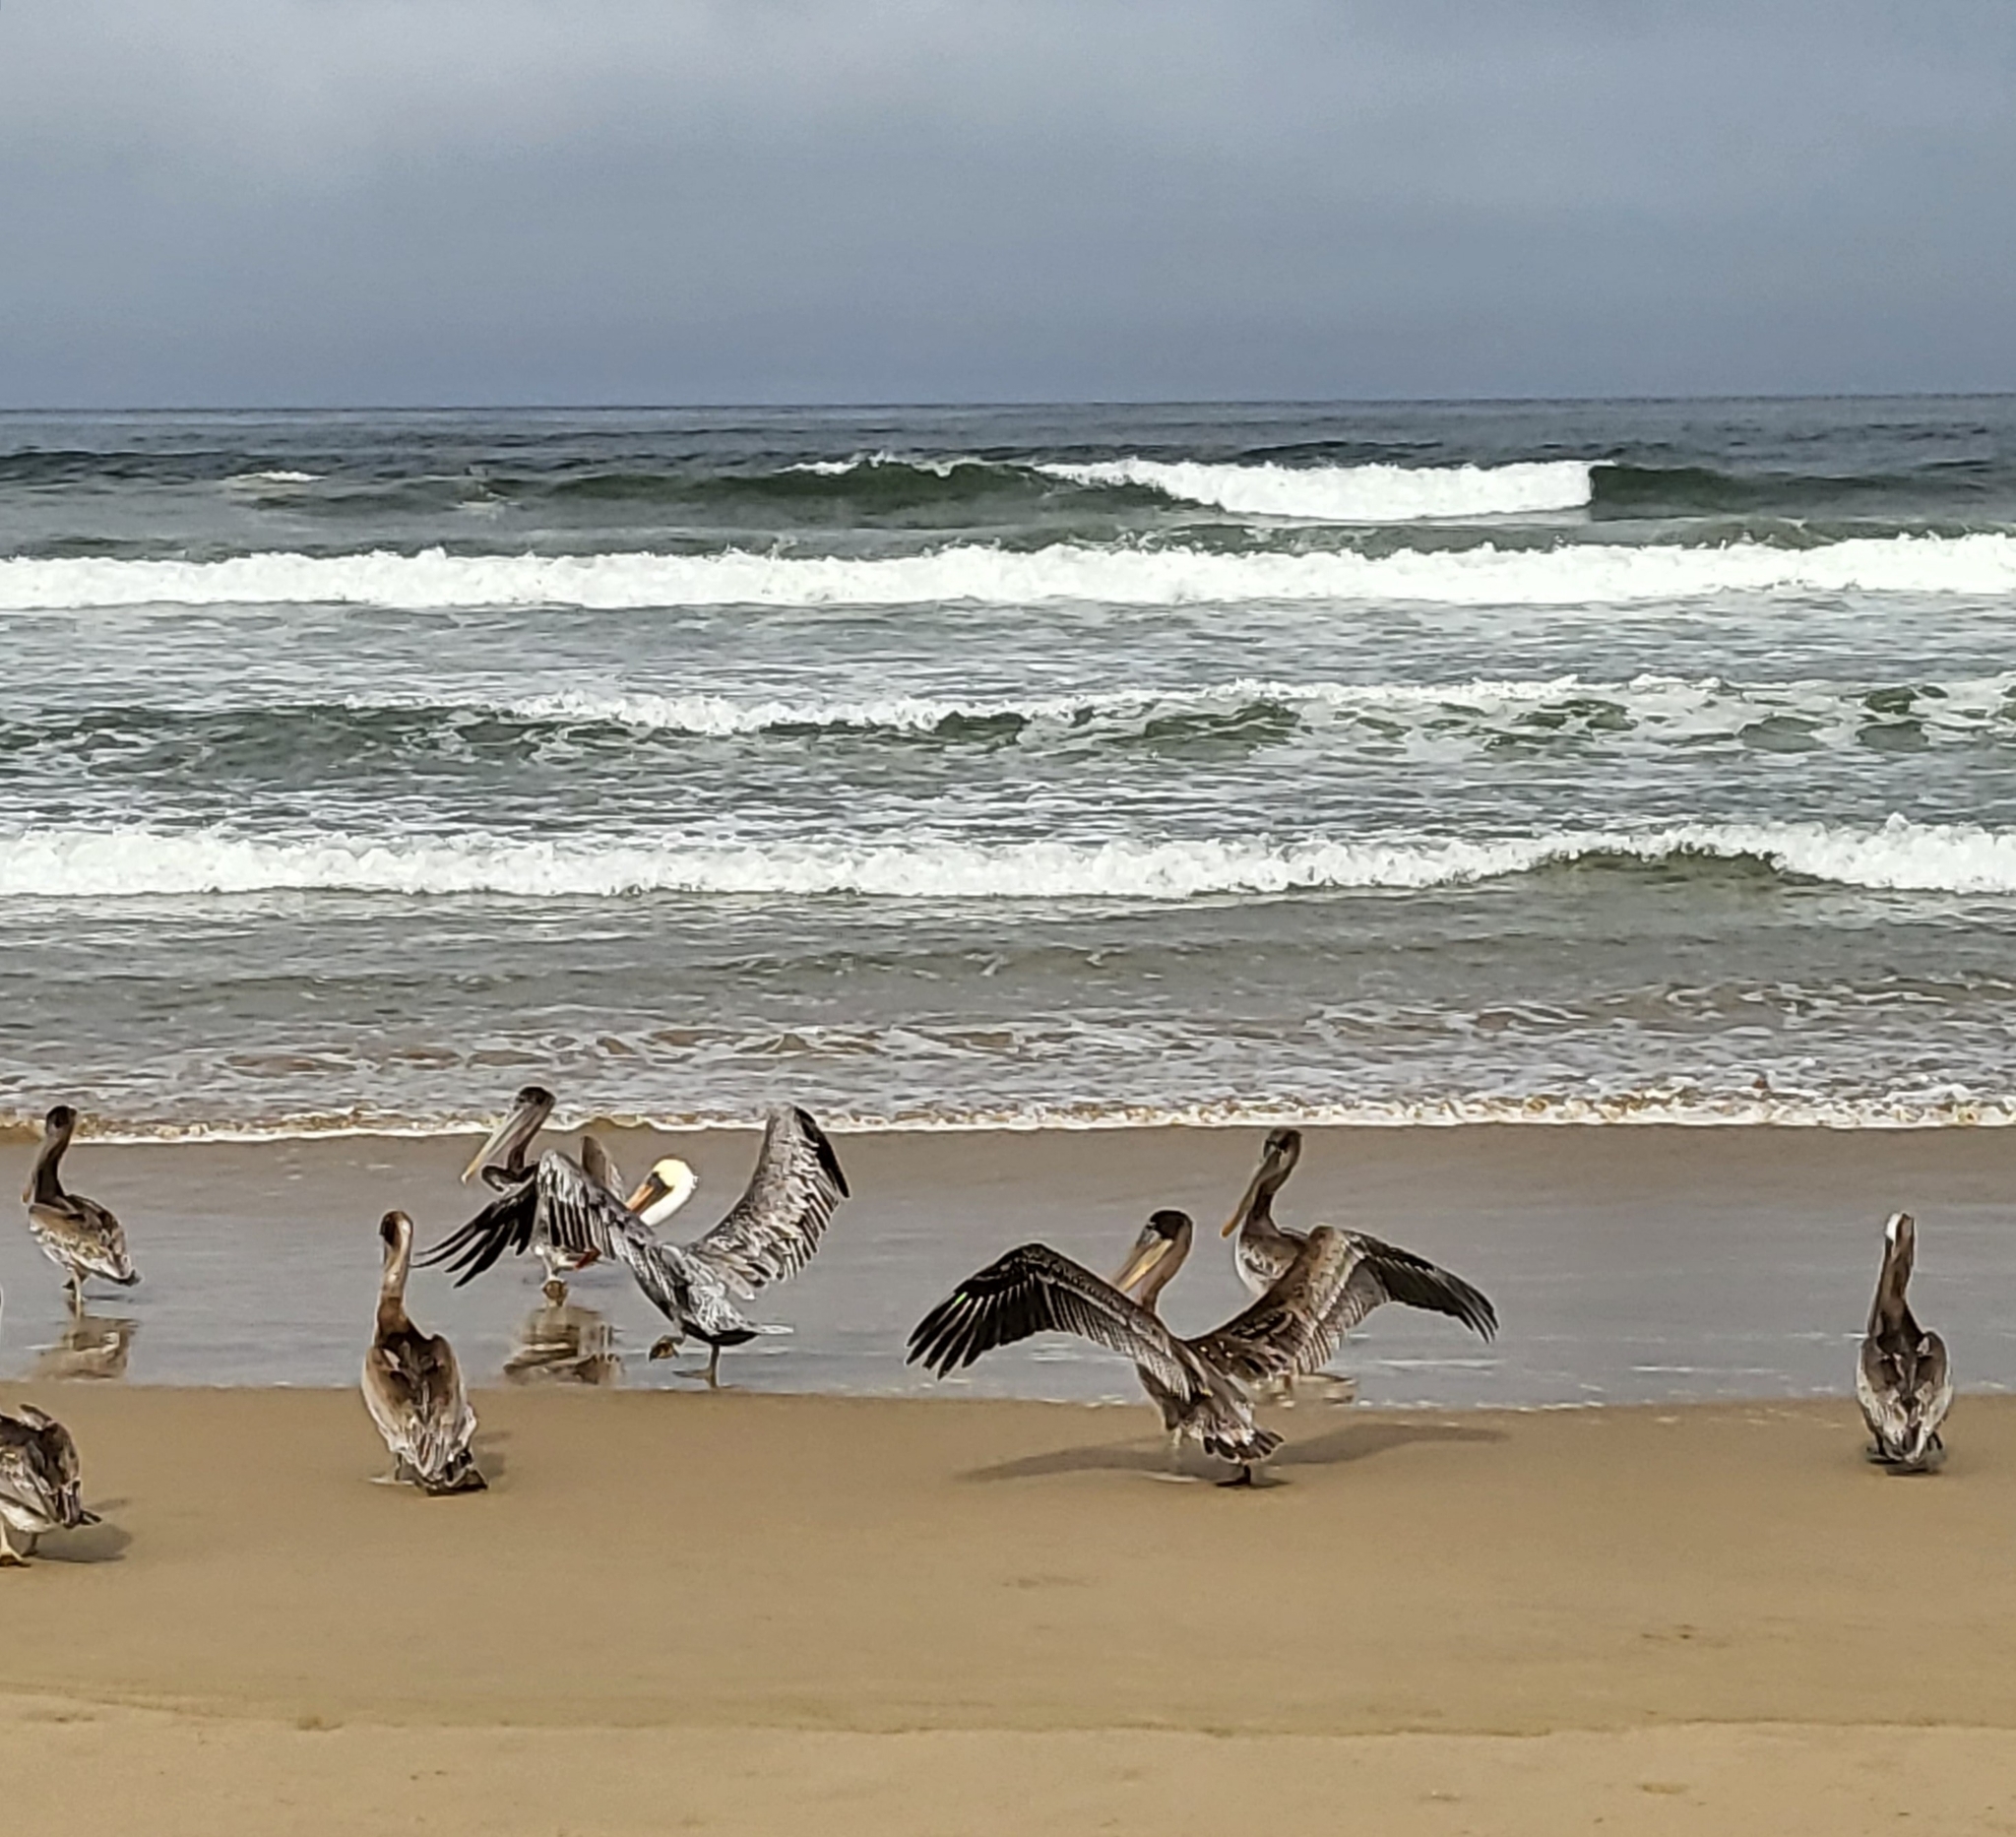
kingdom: Animalia
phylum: Chordata
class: Aves
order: Pelecaniformes
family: Pelecanidae
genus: Pelecanus
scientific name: Pelecanus occidentalis
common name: Brown pelican
